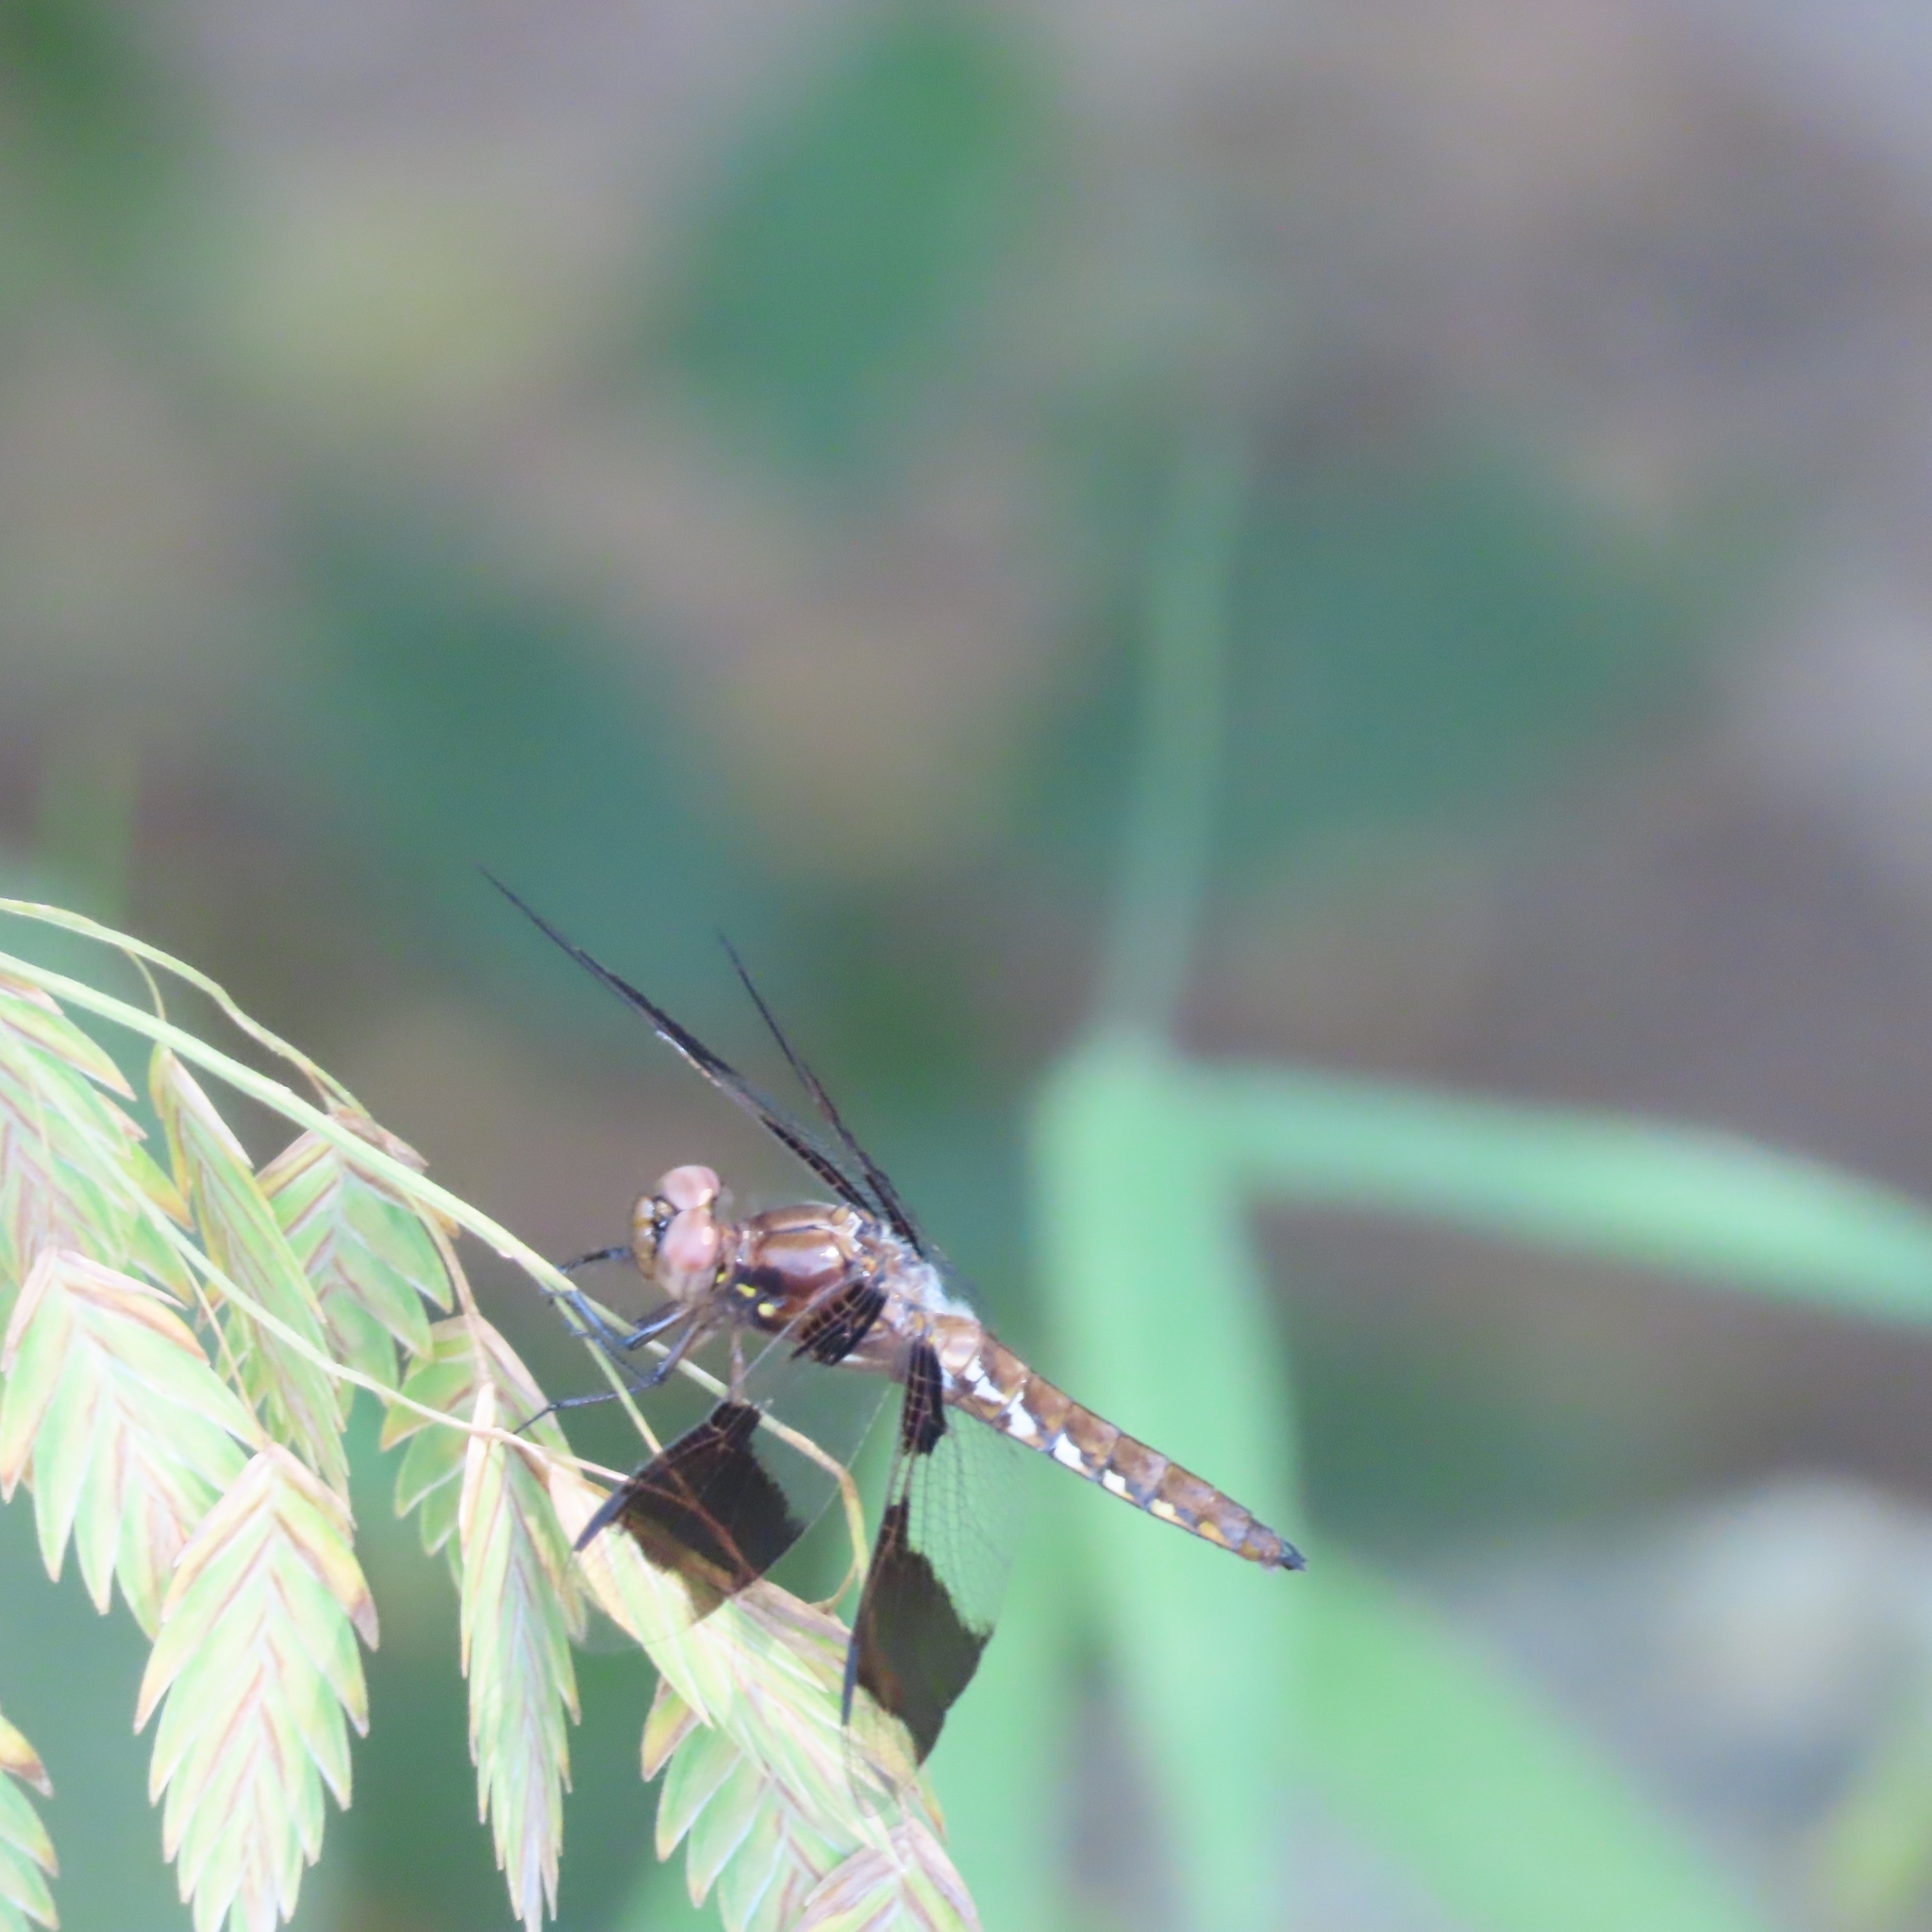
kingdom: Animalia
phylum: Arthropoda
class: Insecta
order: Odonata
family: Libellulidae
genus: Plathemis
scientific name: Plathemis lydia
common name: Common whitetail
